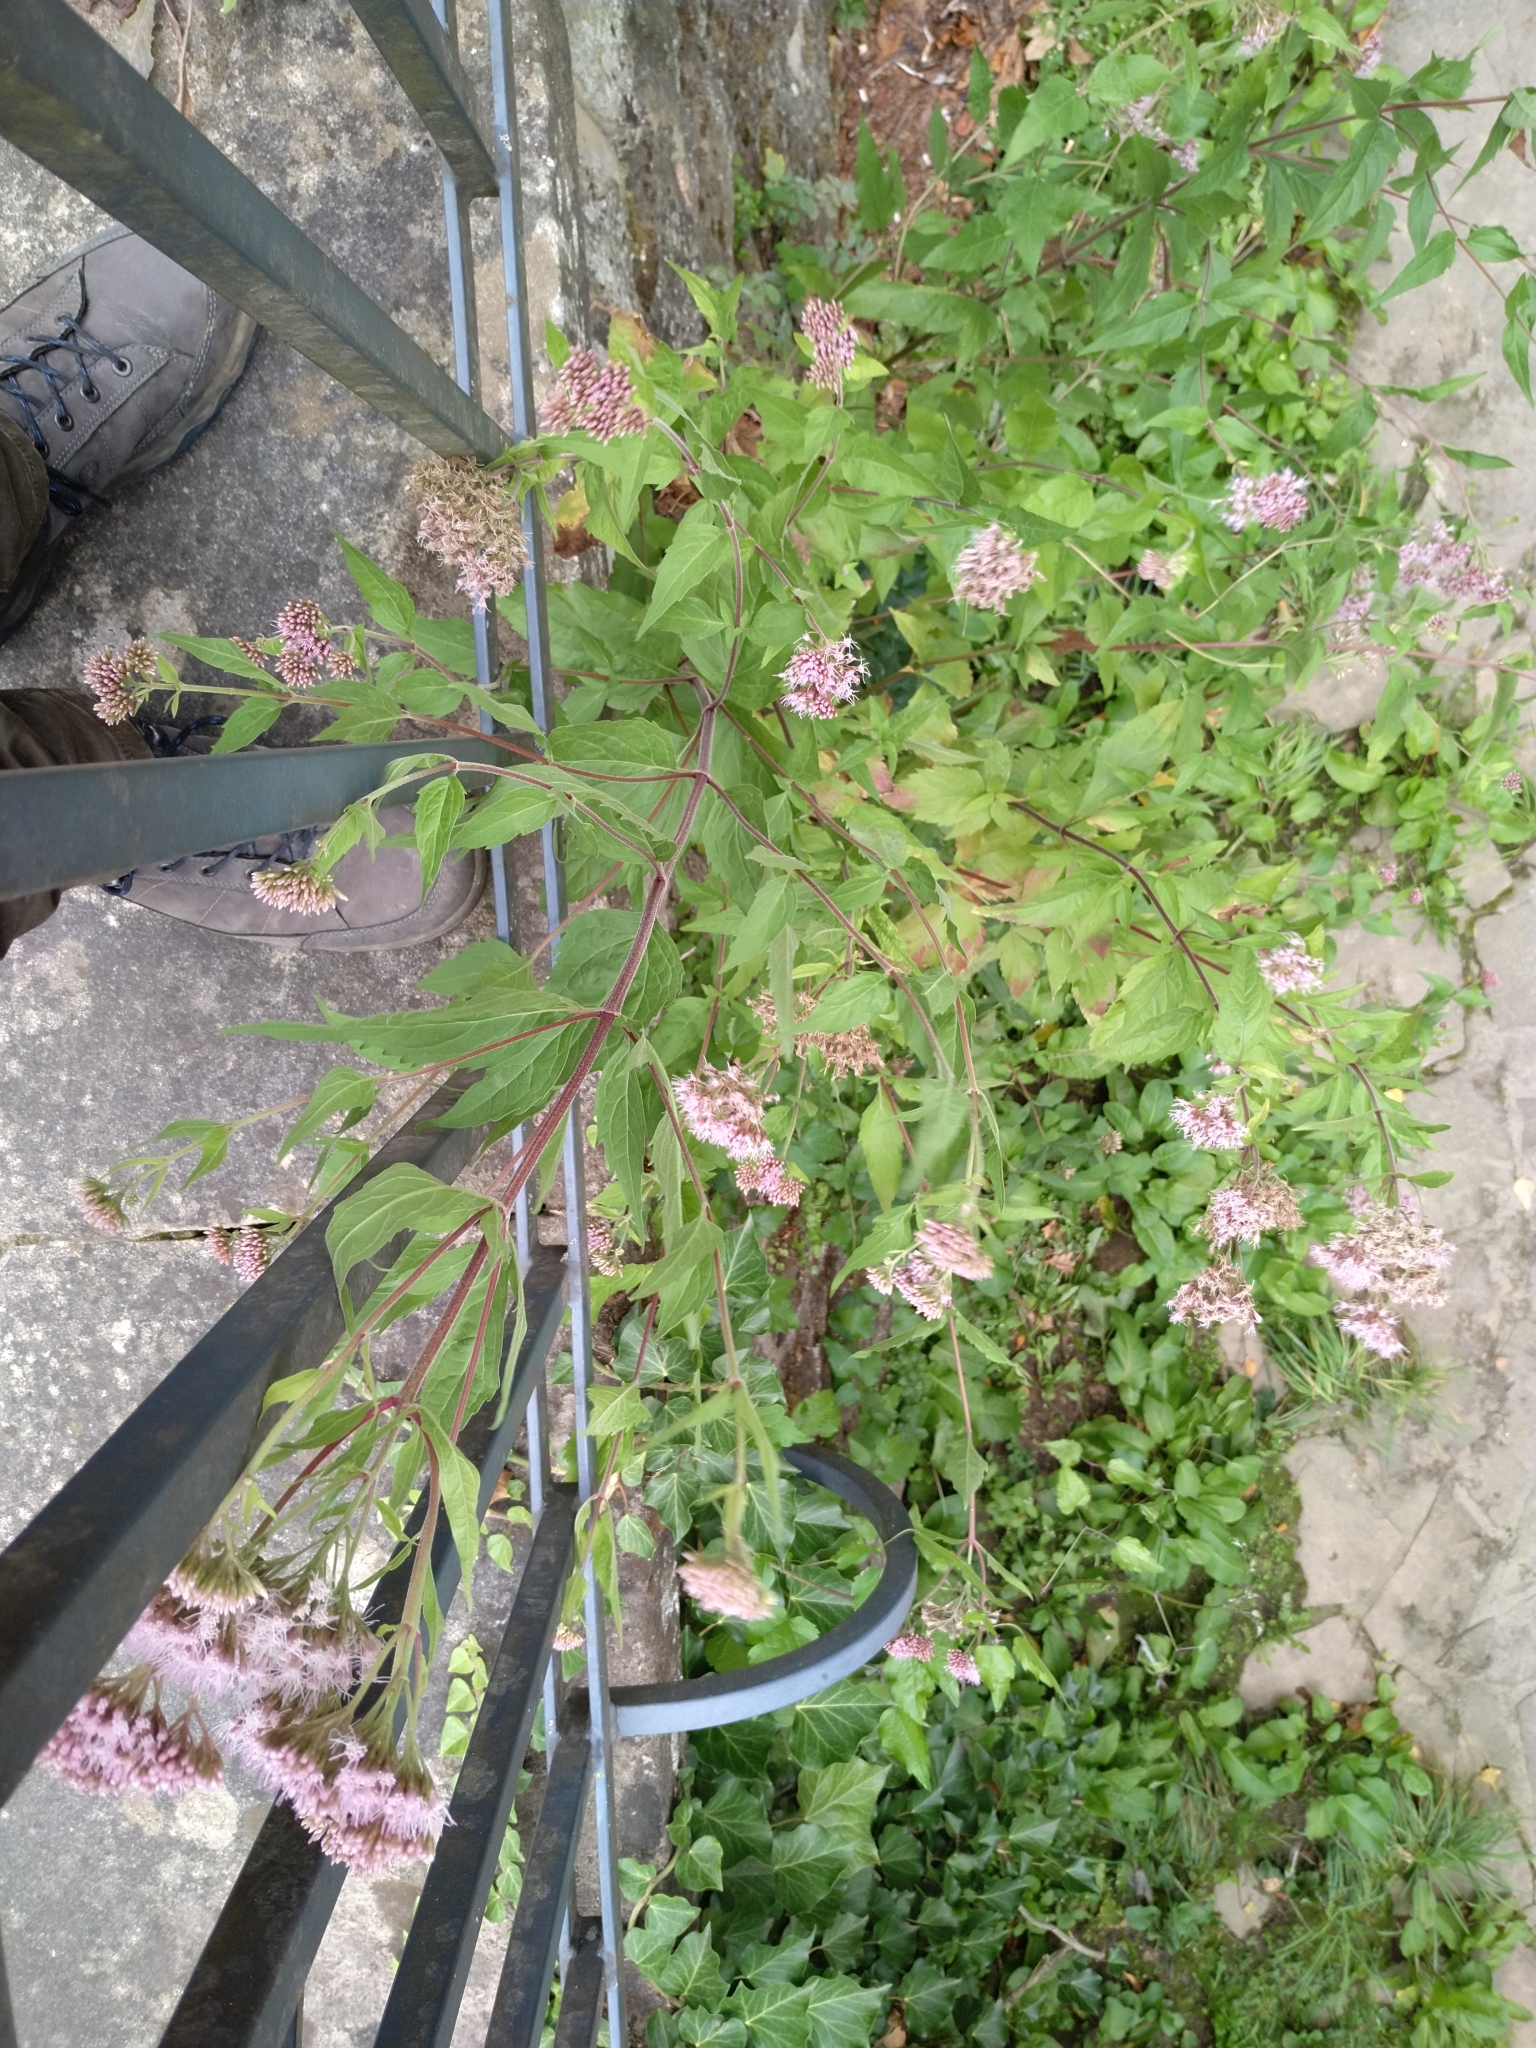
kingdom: Plantae
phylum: Tracheophyta
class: Magnoliopsida
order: Asterales
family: Asteraceae
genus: Eupatorium
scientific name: Eupatorium cannabinum
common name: Hemp-agrimony
